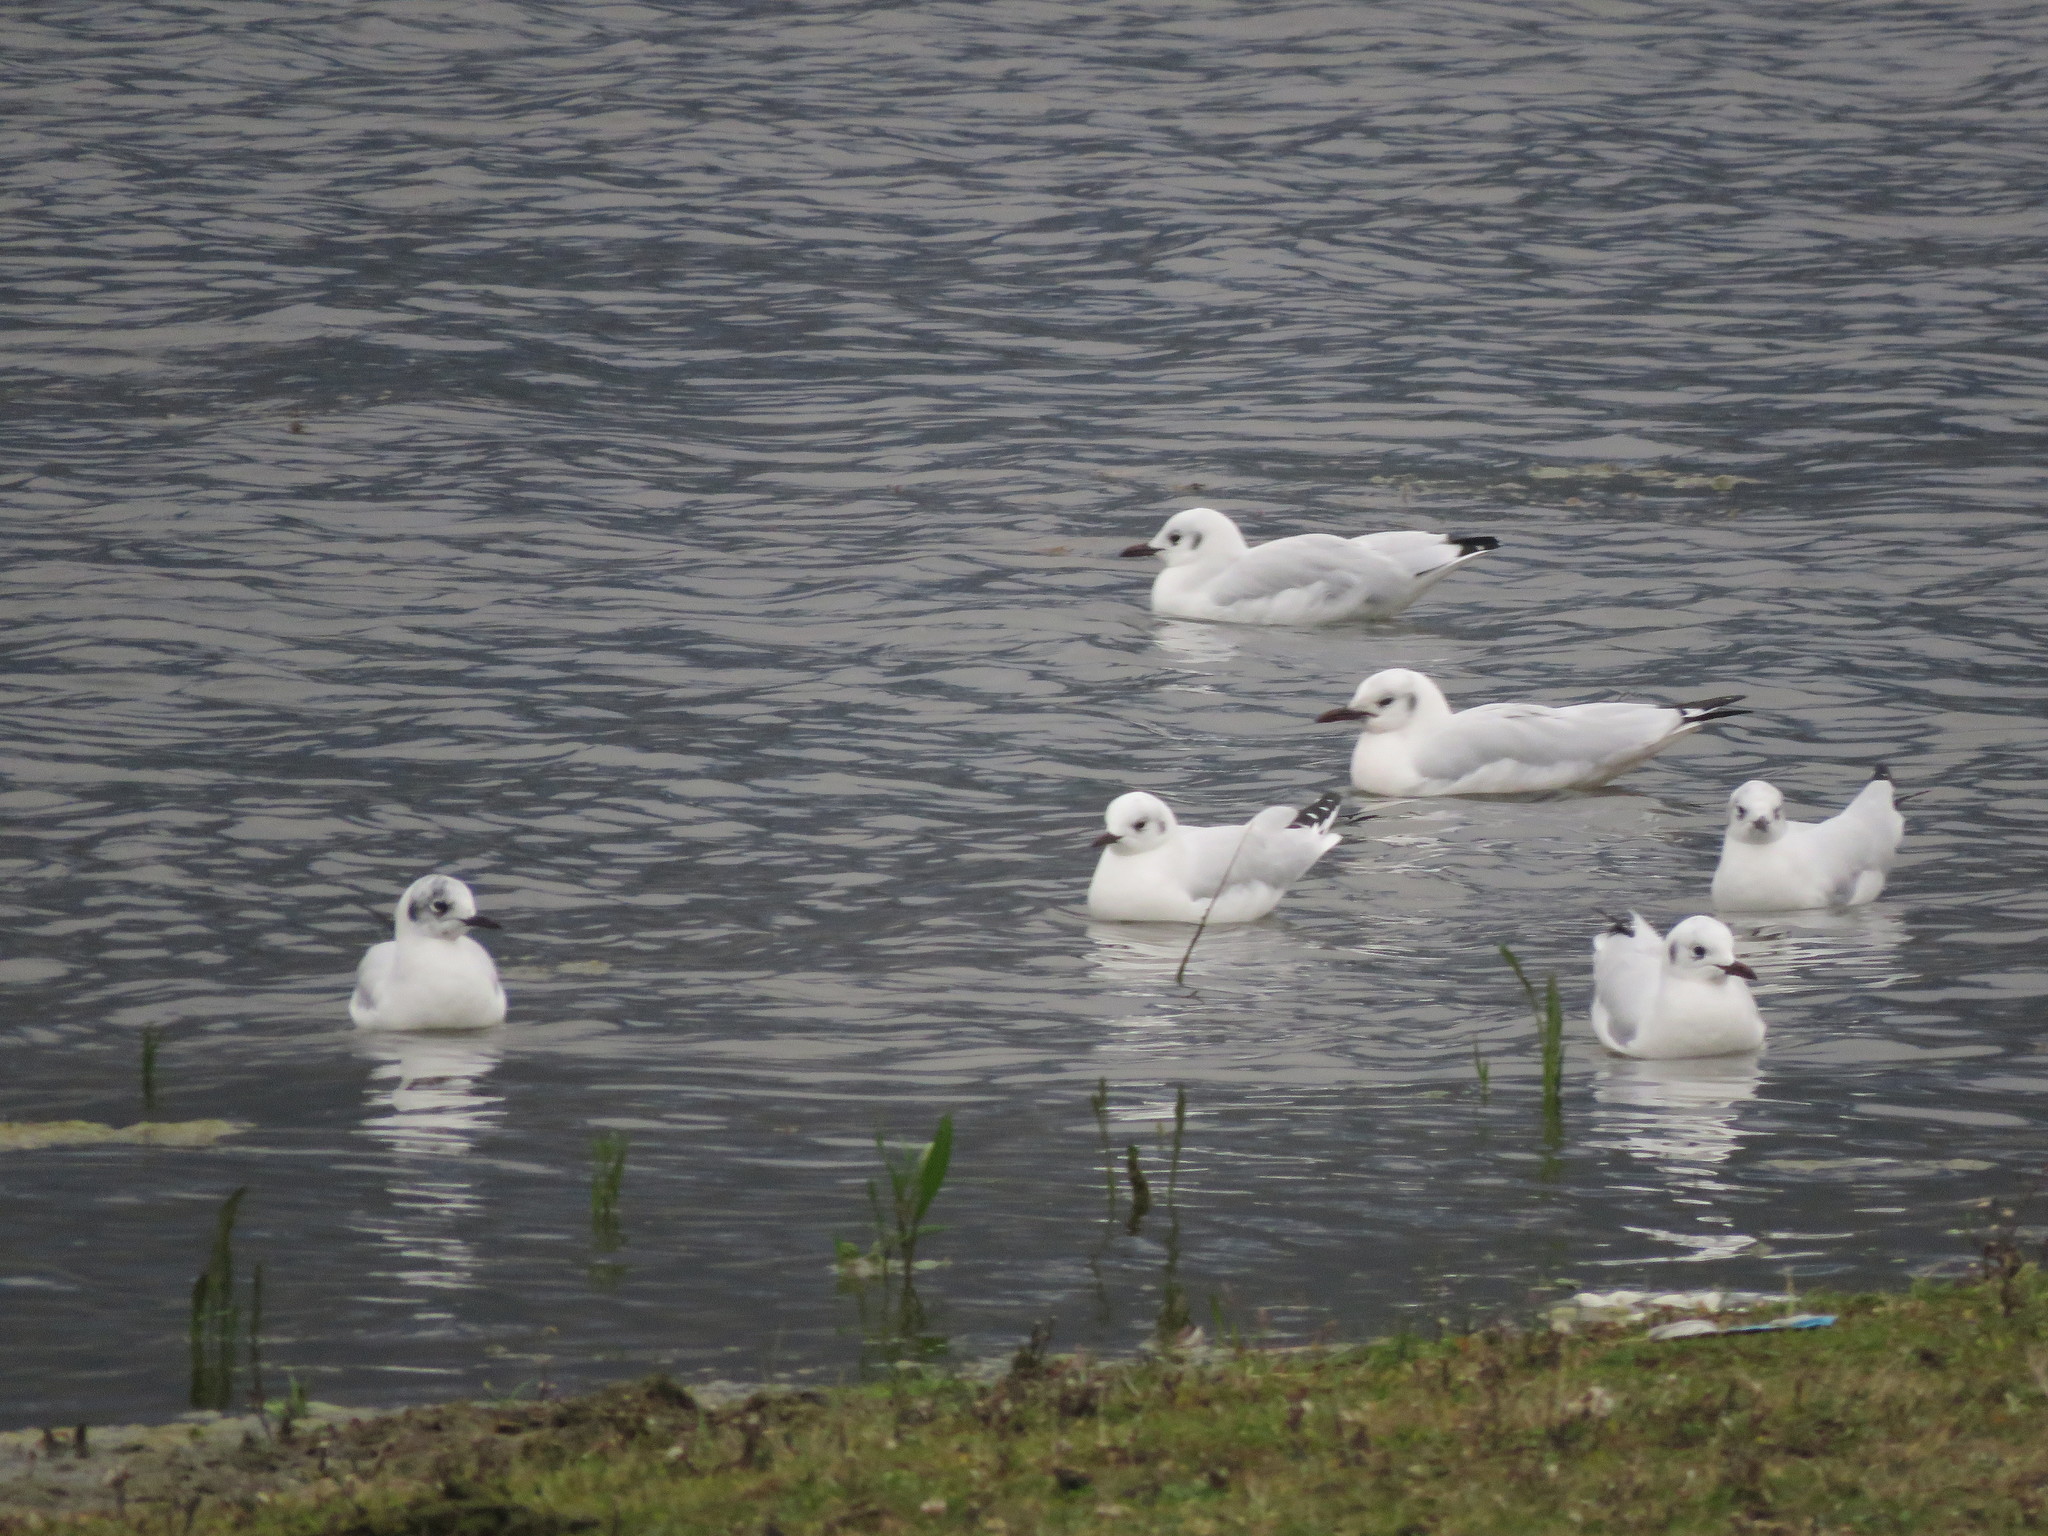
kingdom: Animalia
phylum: Chordata
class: Aves
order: Charadriiformes
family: Laridae
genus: Chroicocephalus
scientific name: Chroicocephalus serranus
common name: Andean gull
